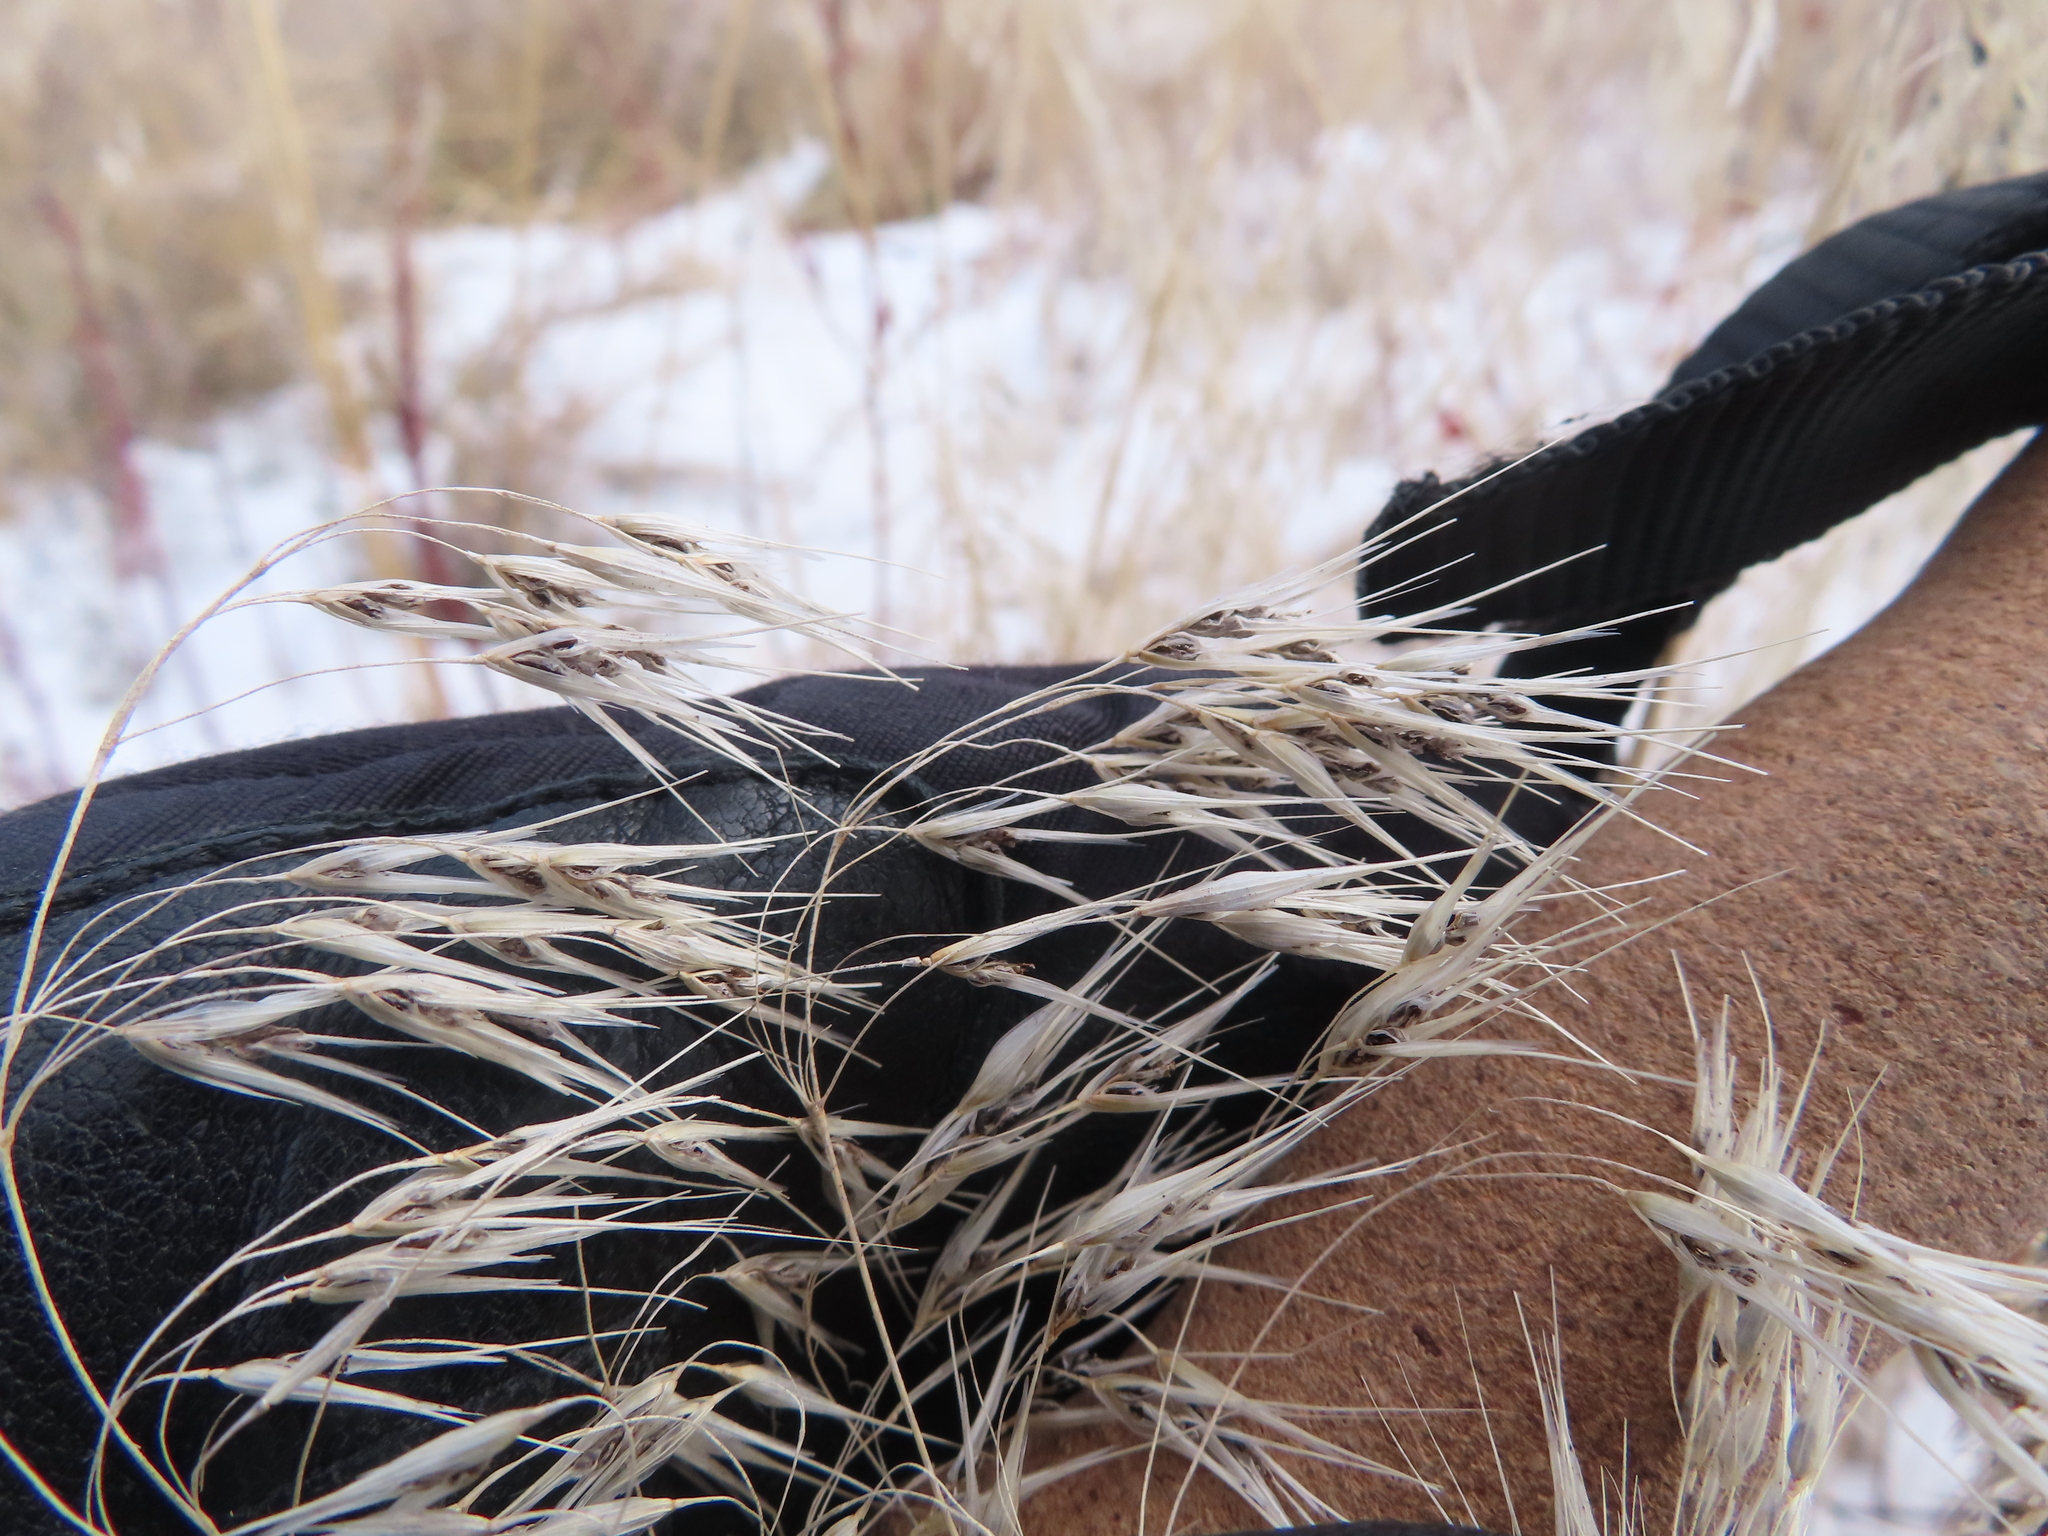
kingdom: Plantae
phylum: Tracheophyta
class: Liliopsida
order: Poales
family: Poaceae
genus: Bromus
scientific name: Bromus tectorum
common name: Cheatgrass
